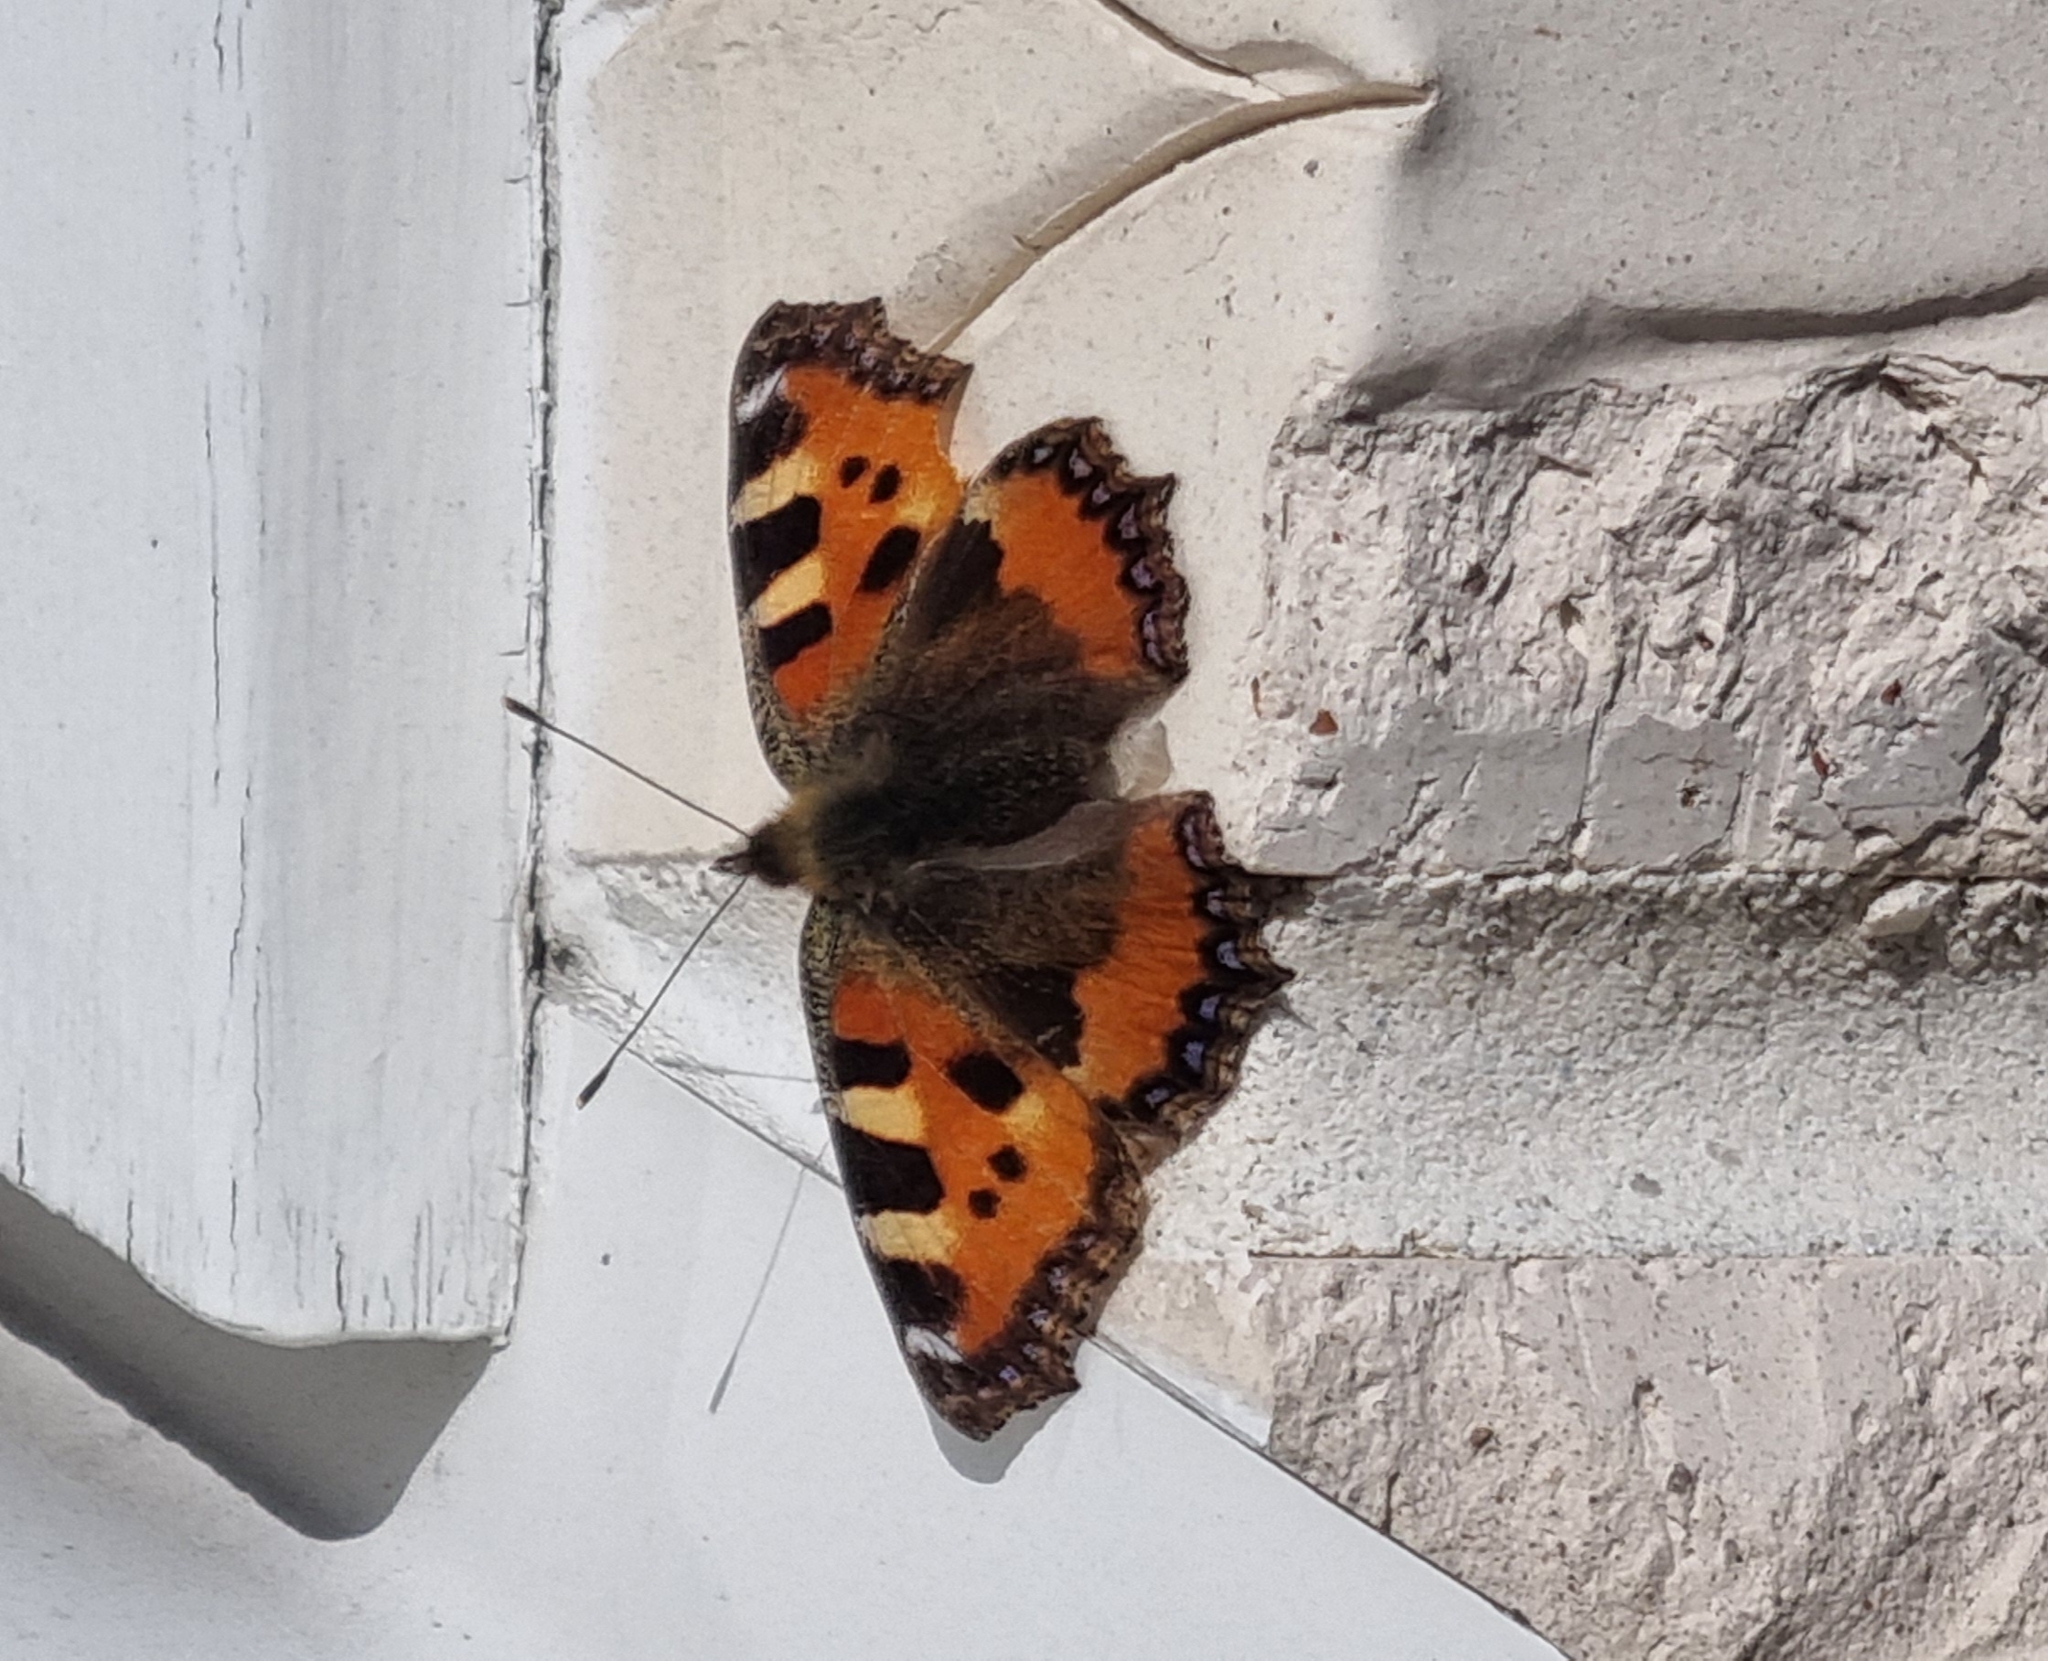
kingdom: Animalia
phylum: Arthropoda
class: Insecta
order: Lepidoptera
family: Nymphalidae
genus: Aglais
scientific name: Aglais urticae
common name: Small tortoiseshell
